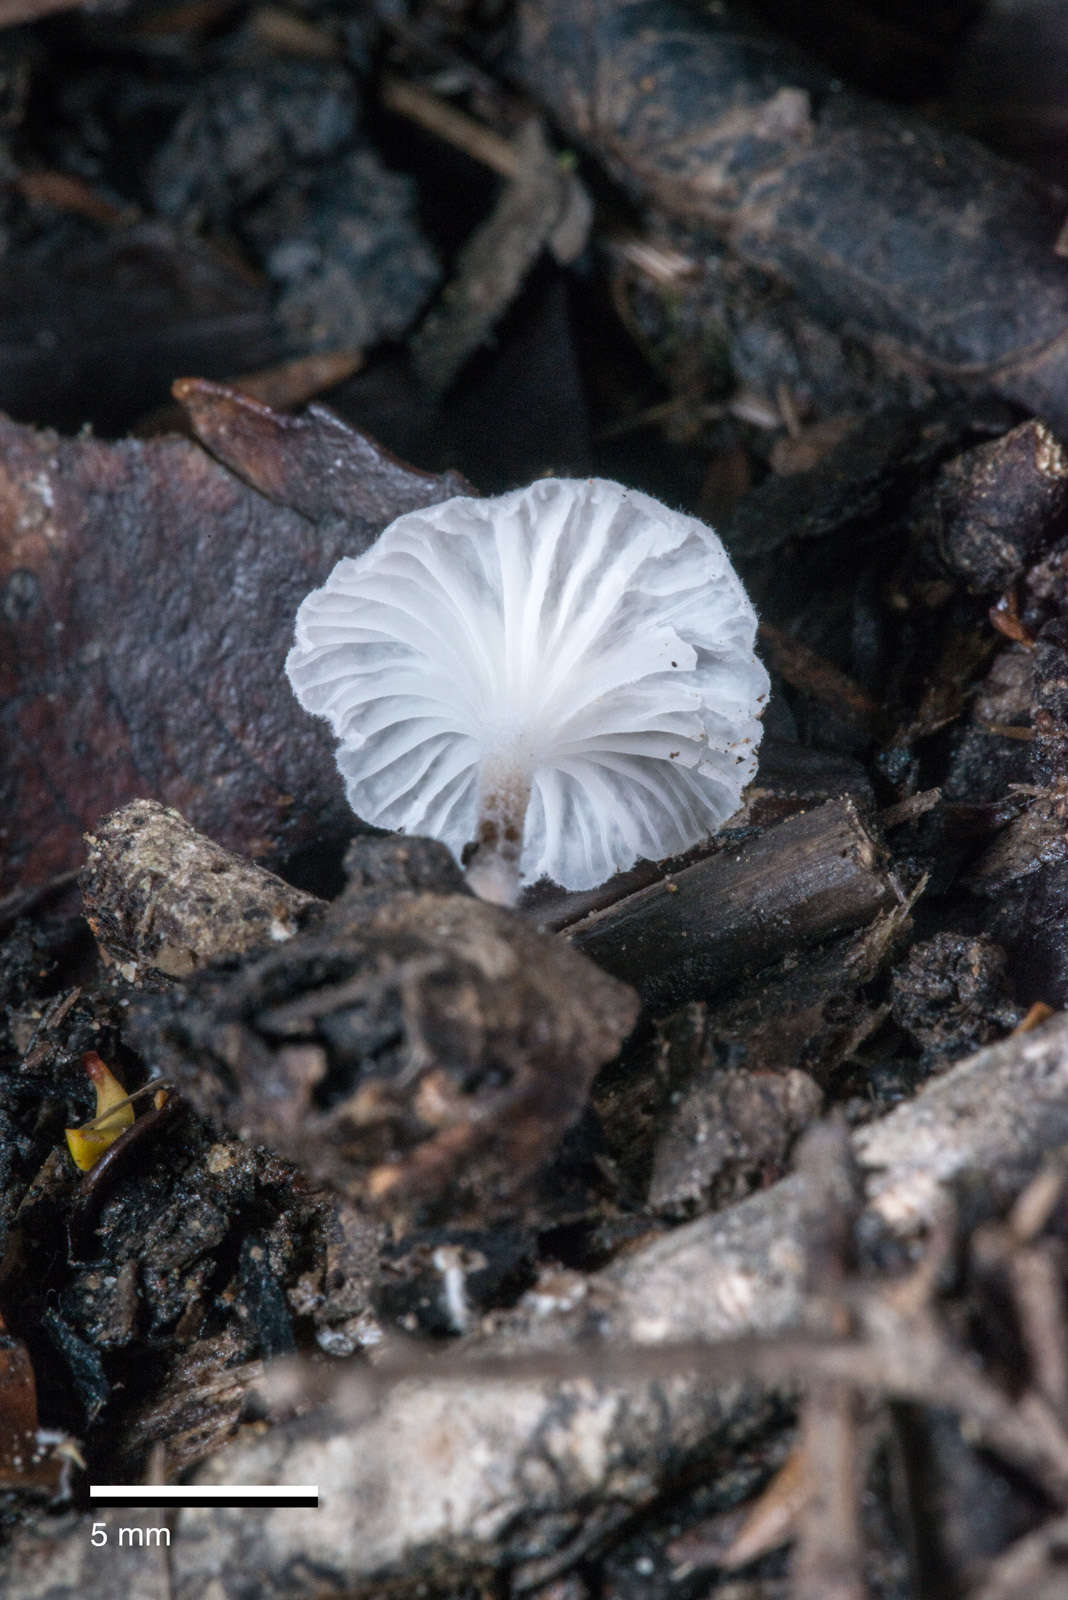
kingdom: Fungi
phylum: Basidiomycota
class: Agaricomycetes
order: Agaricales
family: Porotheleaceae
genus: Porotheleum
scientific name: Porotheleum albodescendens
